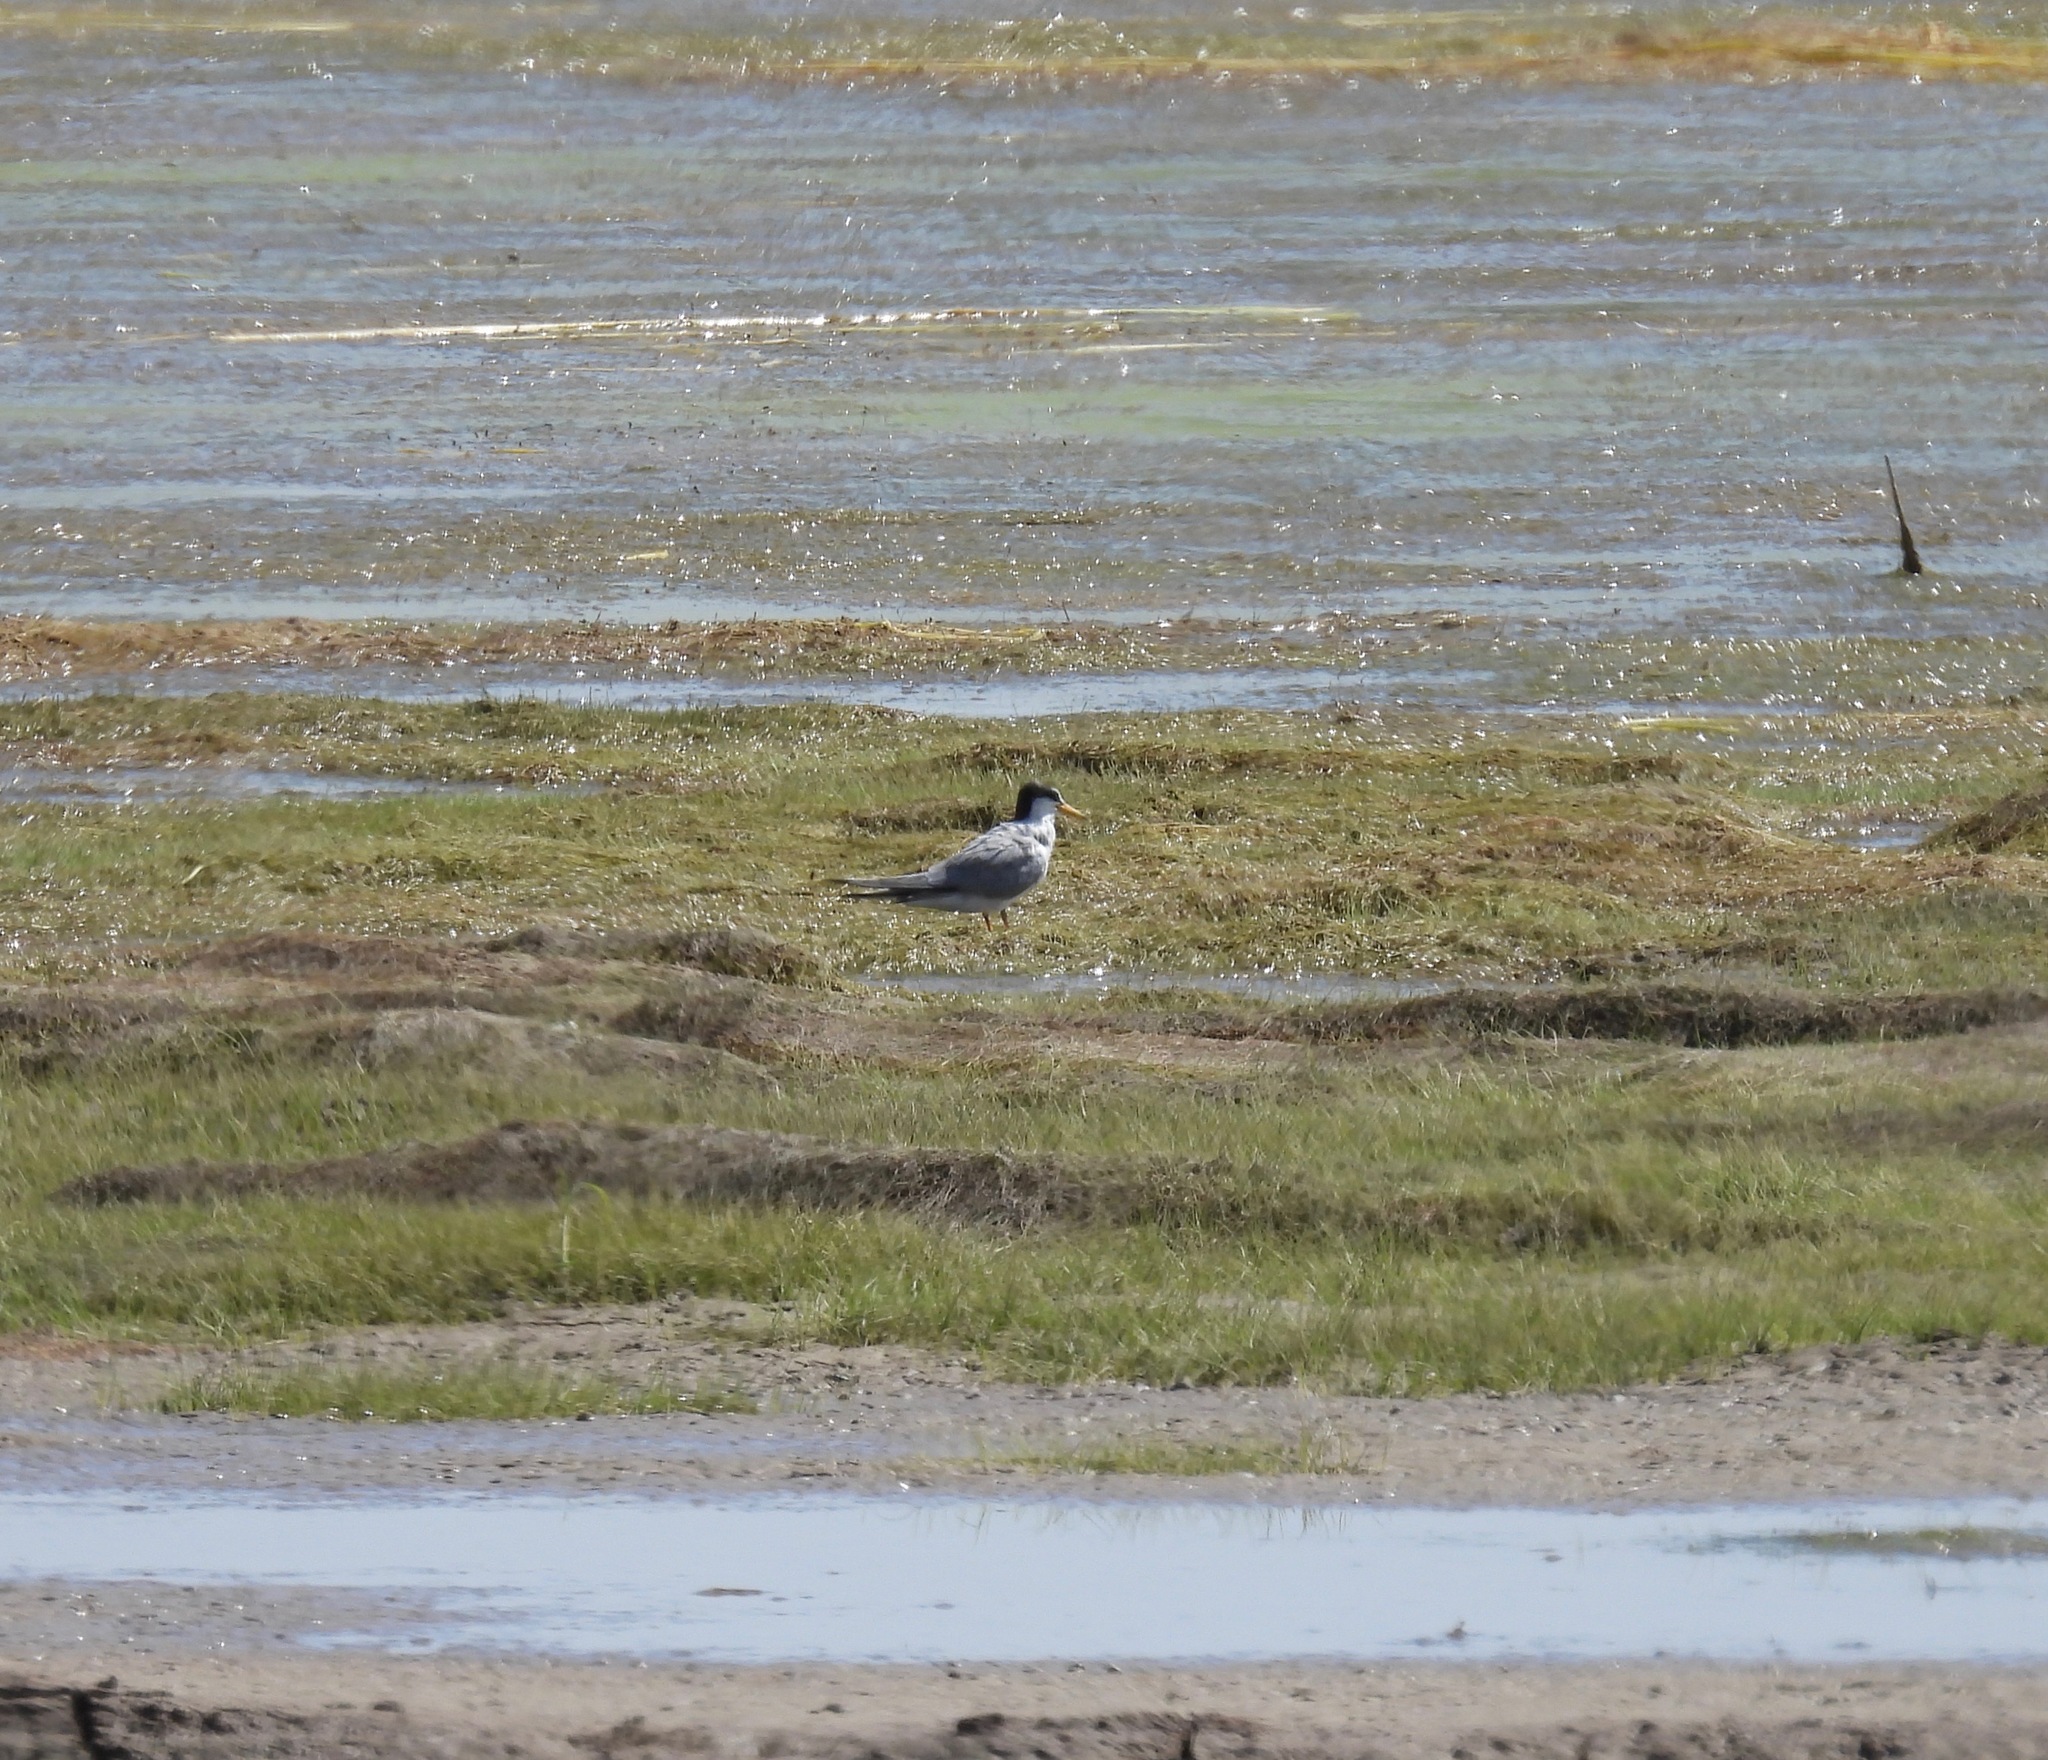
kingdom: Animalia
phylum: Chordata
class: Aves
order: Charadriiformes
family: Laridae
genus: Sternula
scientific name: Sternula antillarum
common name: Least tern
